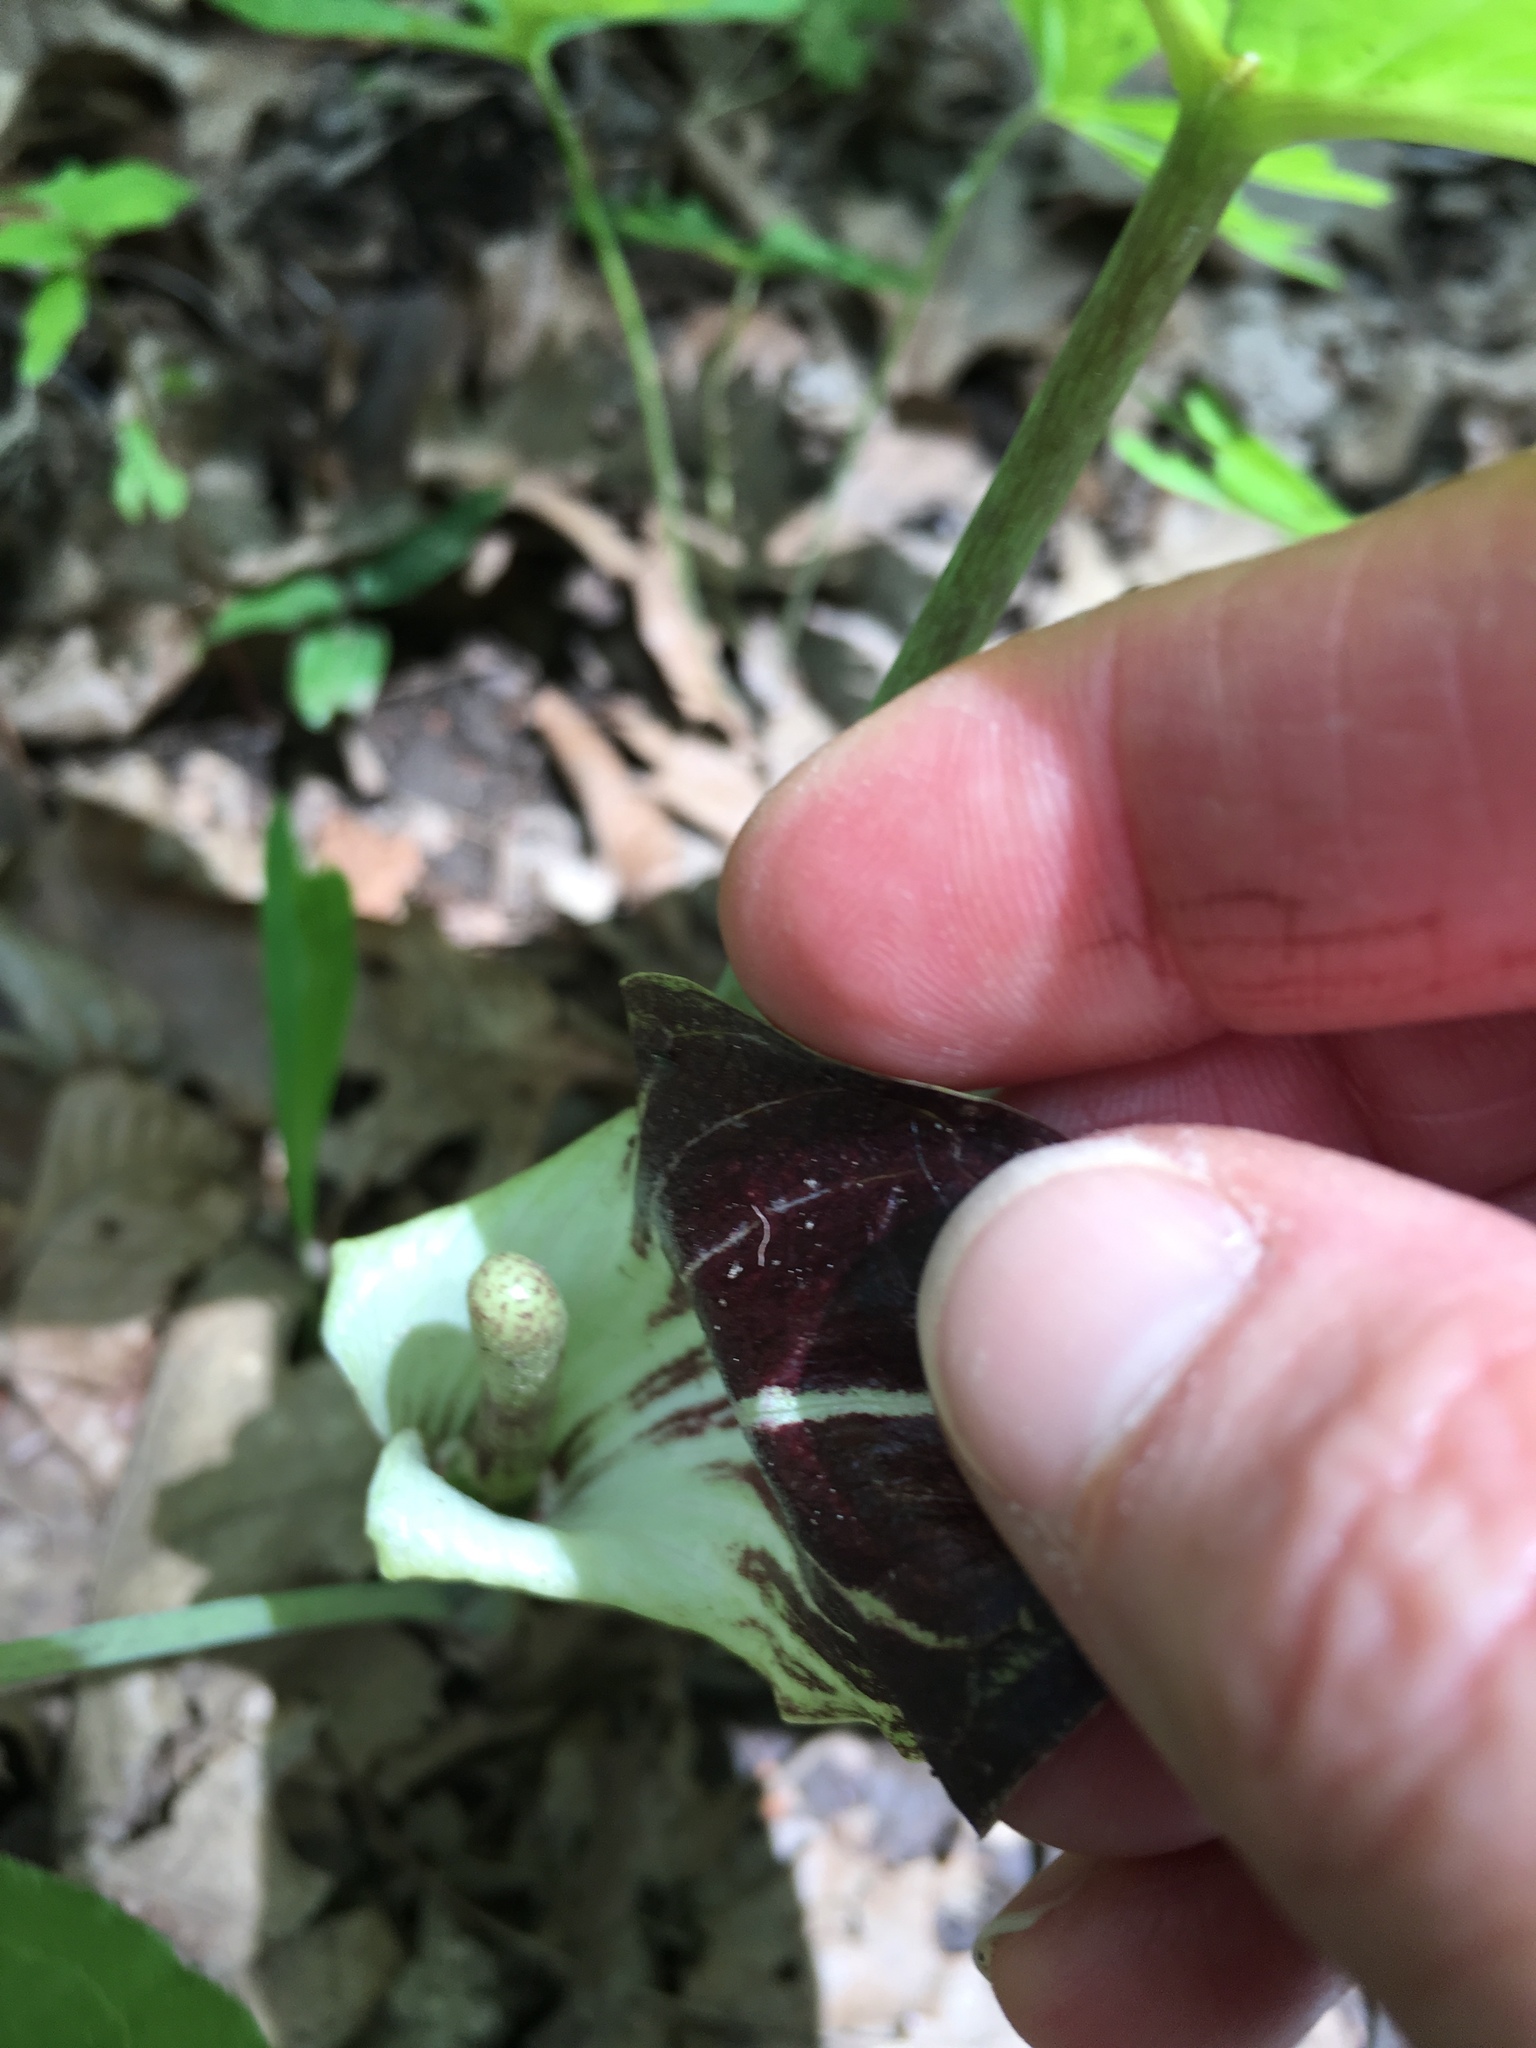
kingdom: Plantae
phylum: Tracheophyta
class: Liliopsida
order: Alismatales
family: Araceae
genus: Arisaema
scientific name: Arisaema triphyllum
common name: Jack-in-the-pulpit
